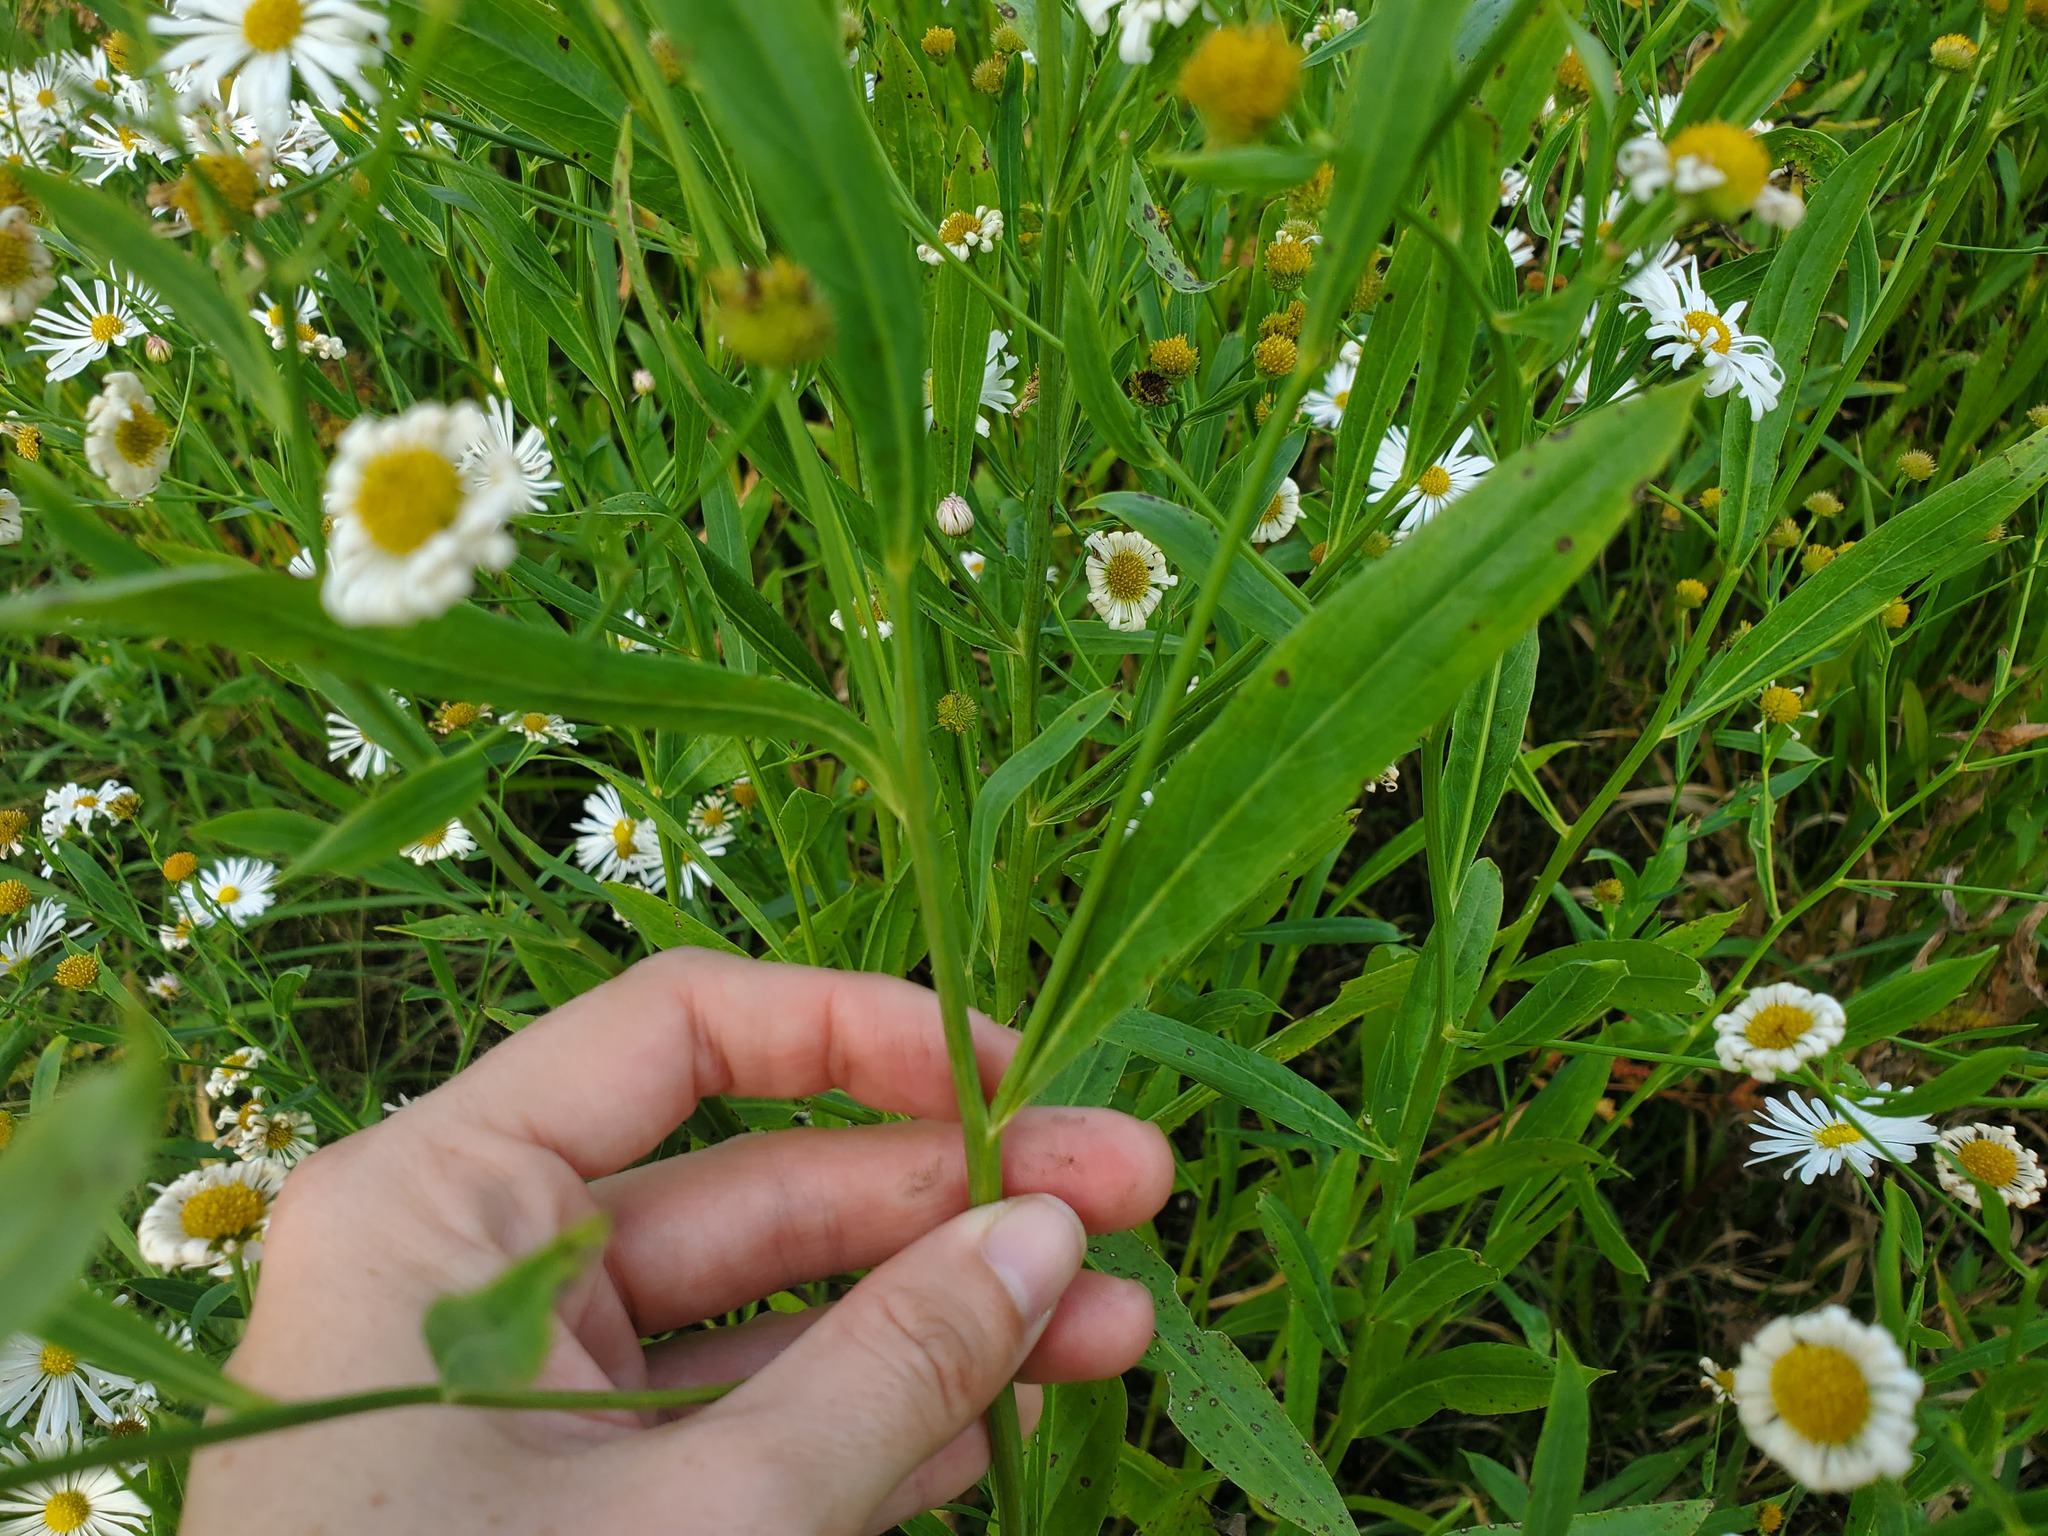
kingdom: Plantae
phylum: Tracheophyta
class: Magnoliopsida
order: Asterales
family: Asteraceae
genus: Boltonia
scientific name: Boltonia asteroides
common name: False chamomile
